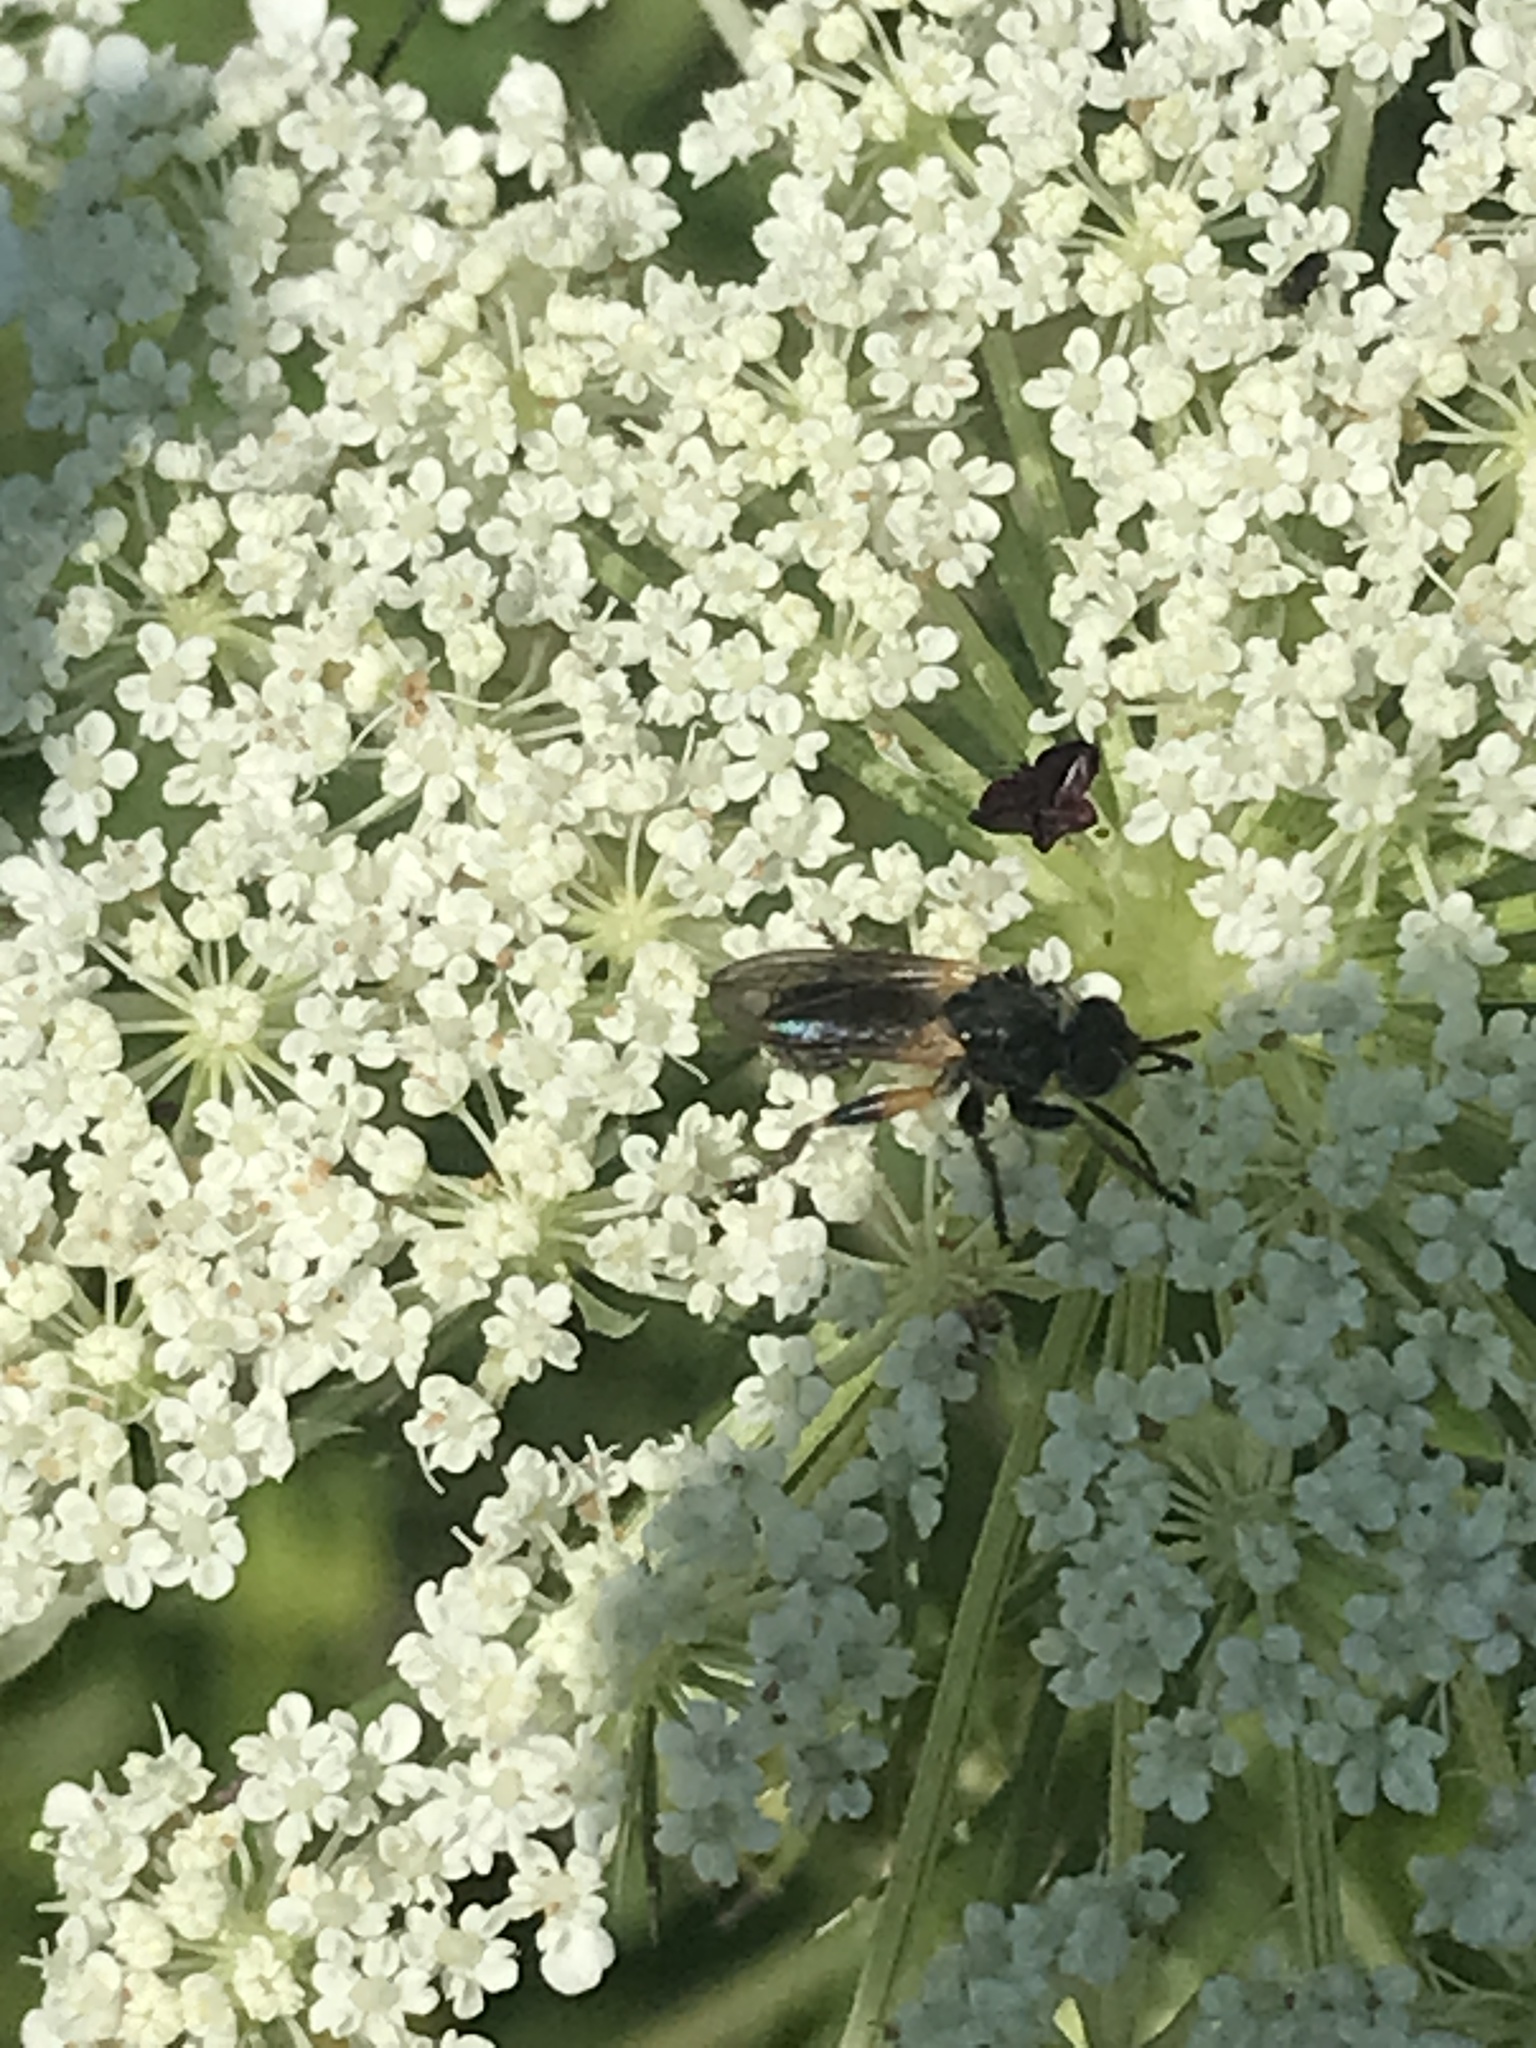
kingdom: Animalia
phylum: Arthropoda
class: Insecta
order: Diptera
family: Conopidae
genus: Thecophora
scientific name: Thecophora occidensis
